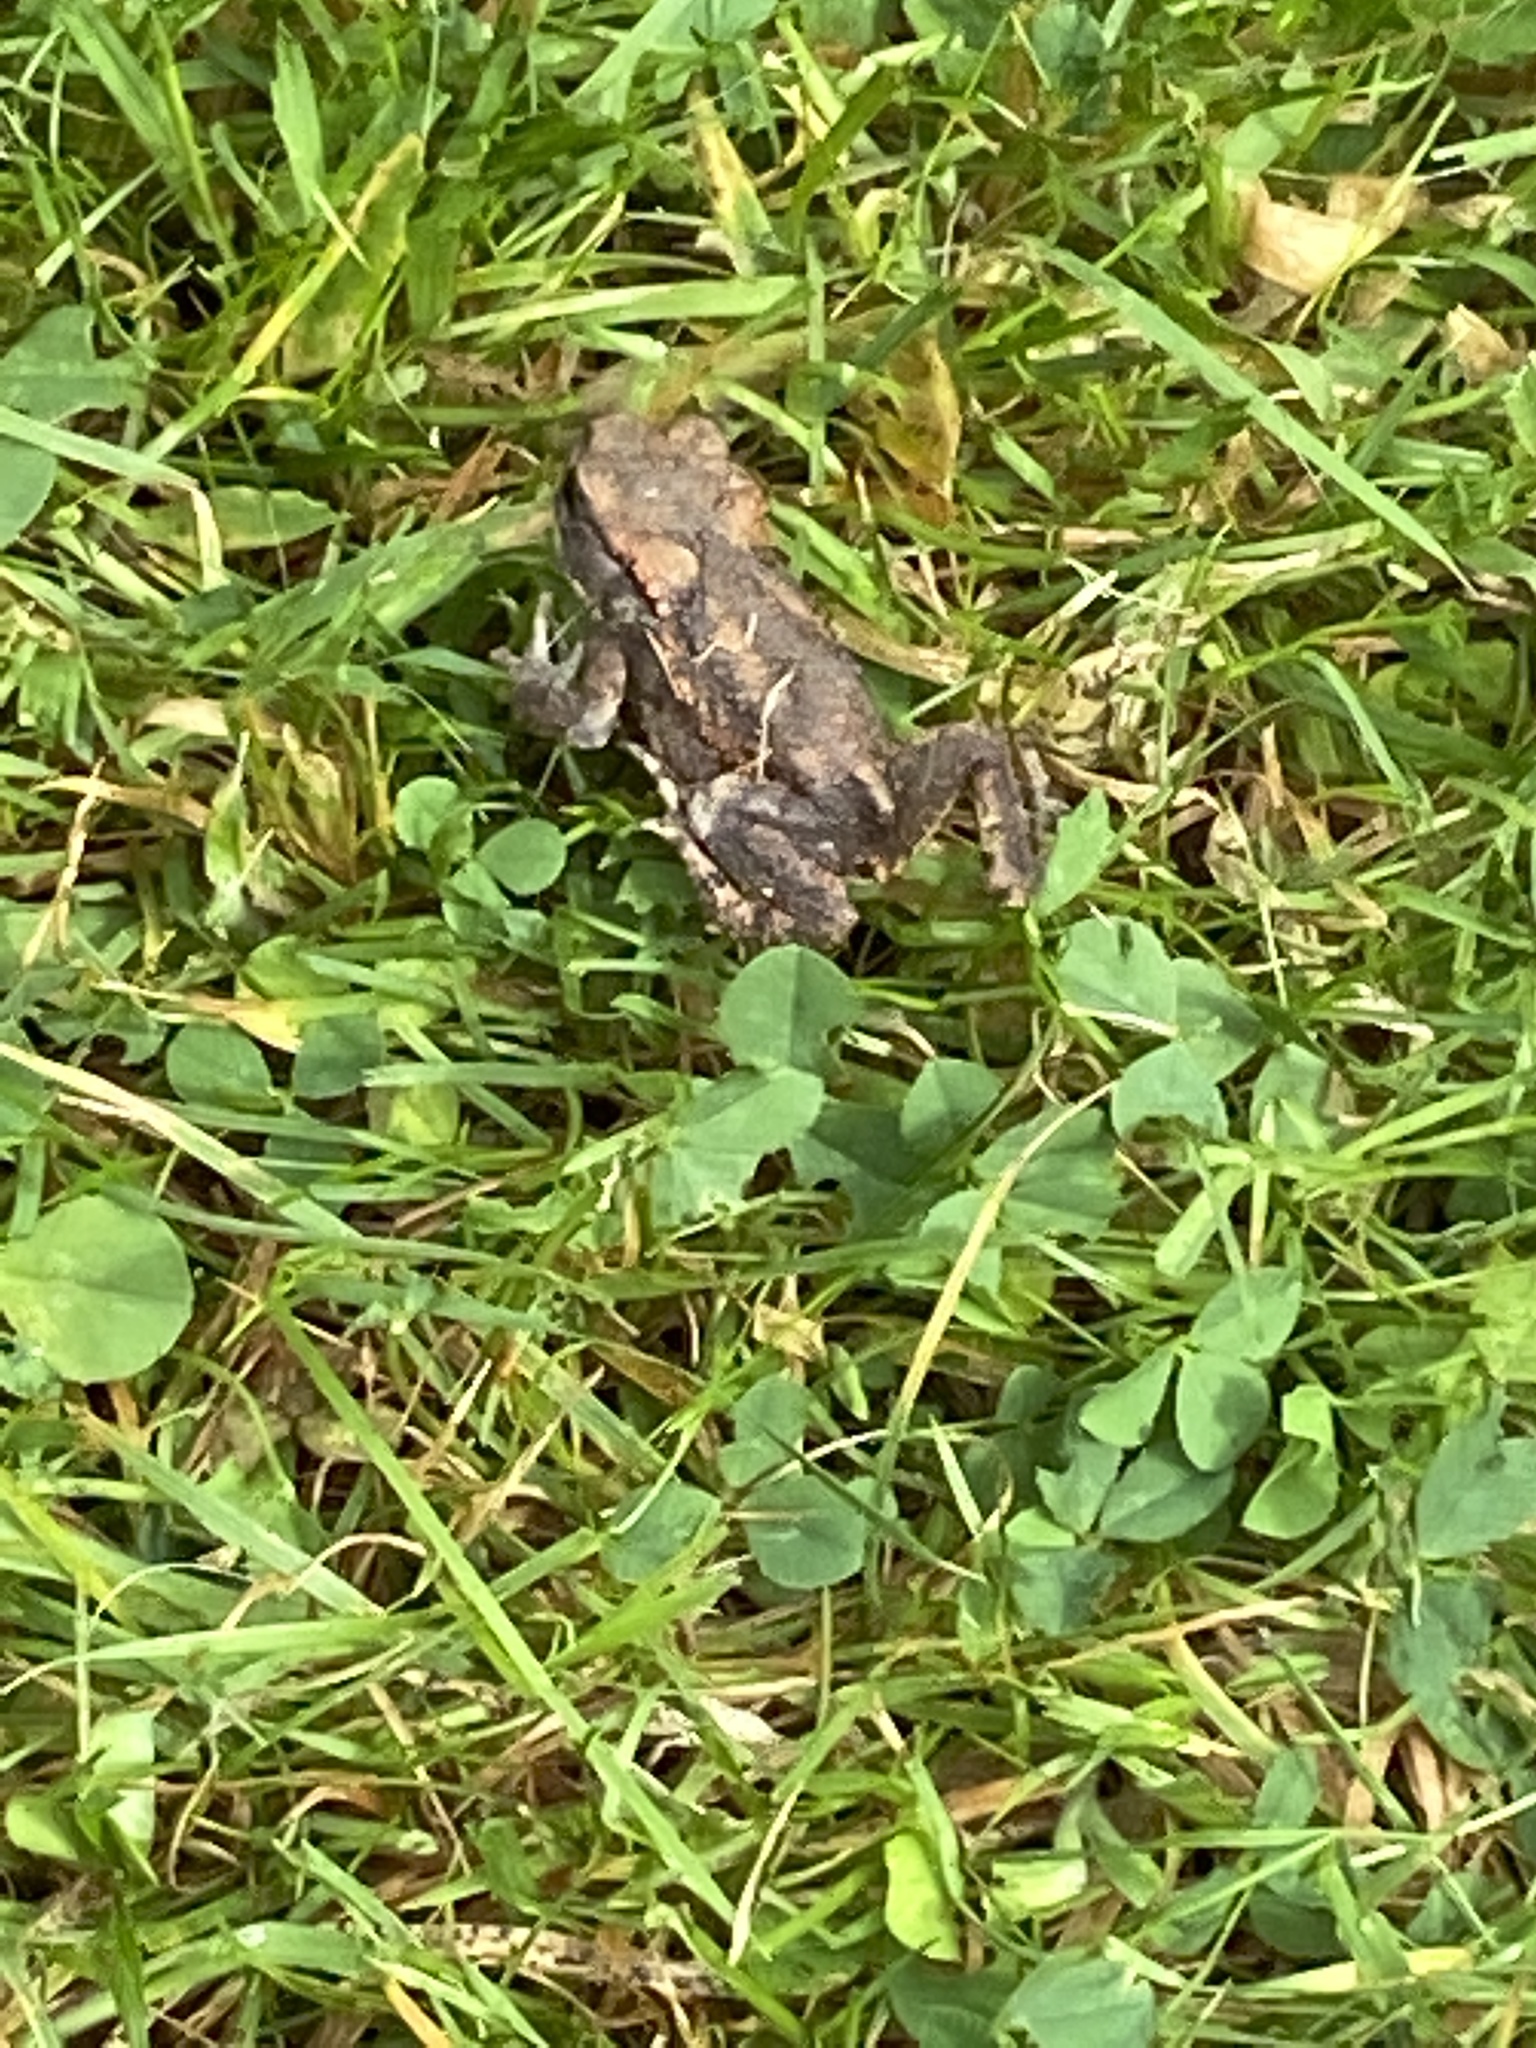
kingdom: Animalia
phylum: Chordata
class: Amphibia
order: Anura
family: Bufonidae
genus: Bufo
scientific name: Bufo bufo
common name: Common toad
